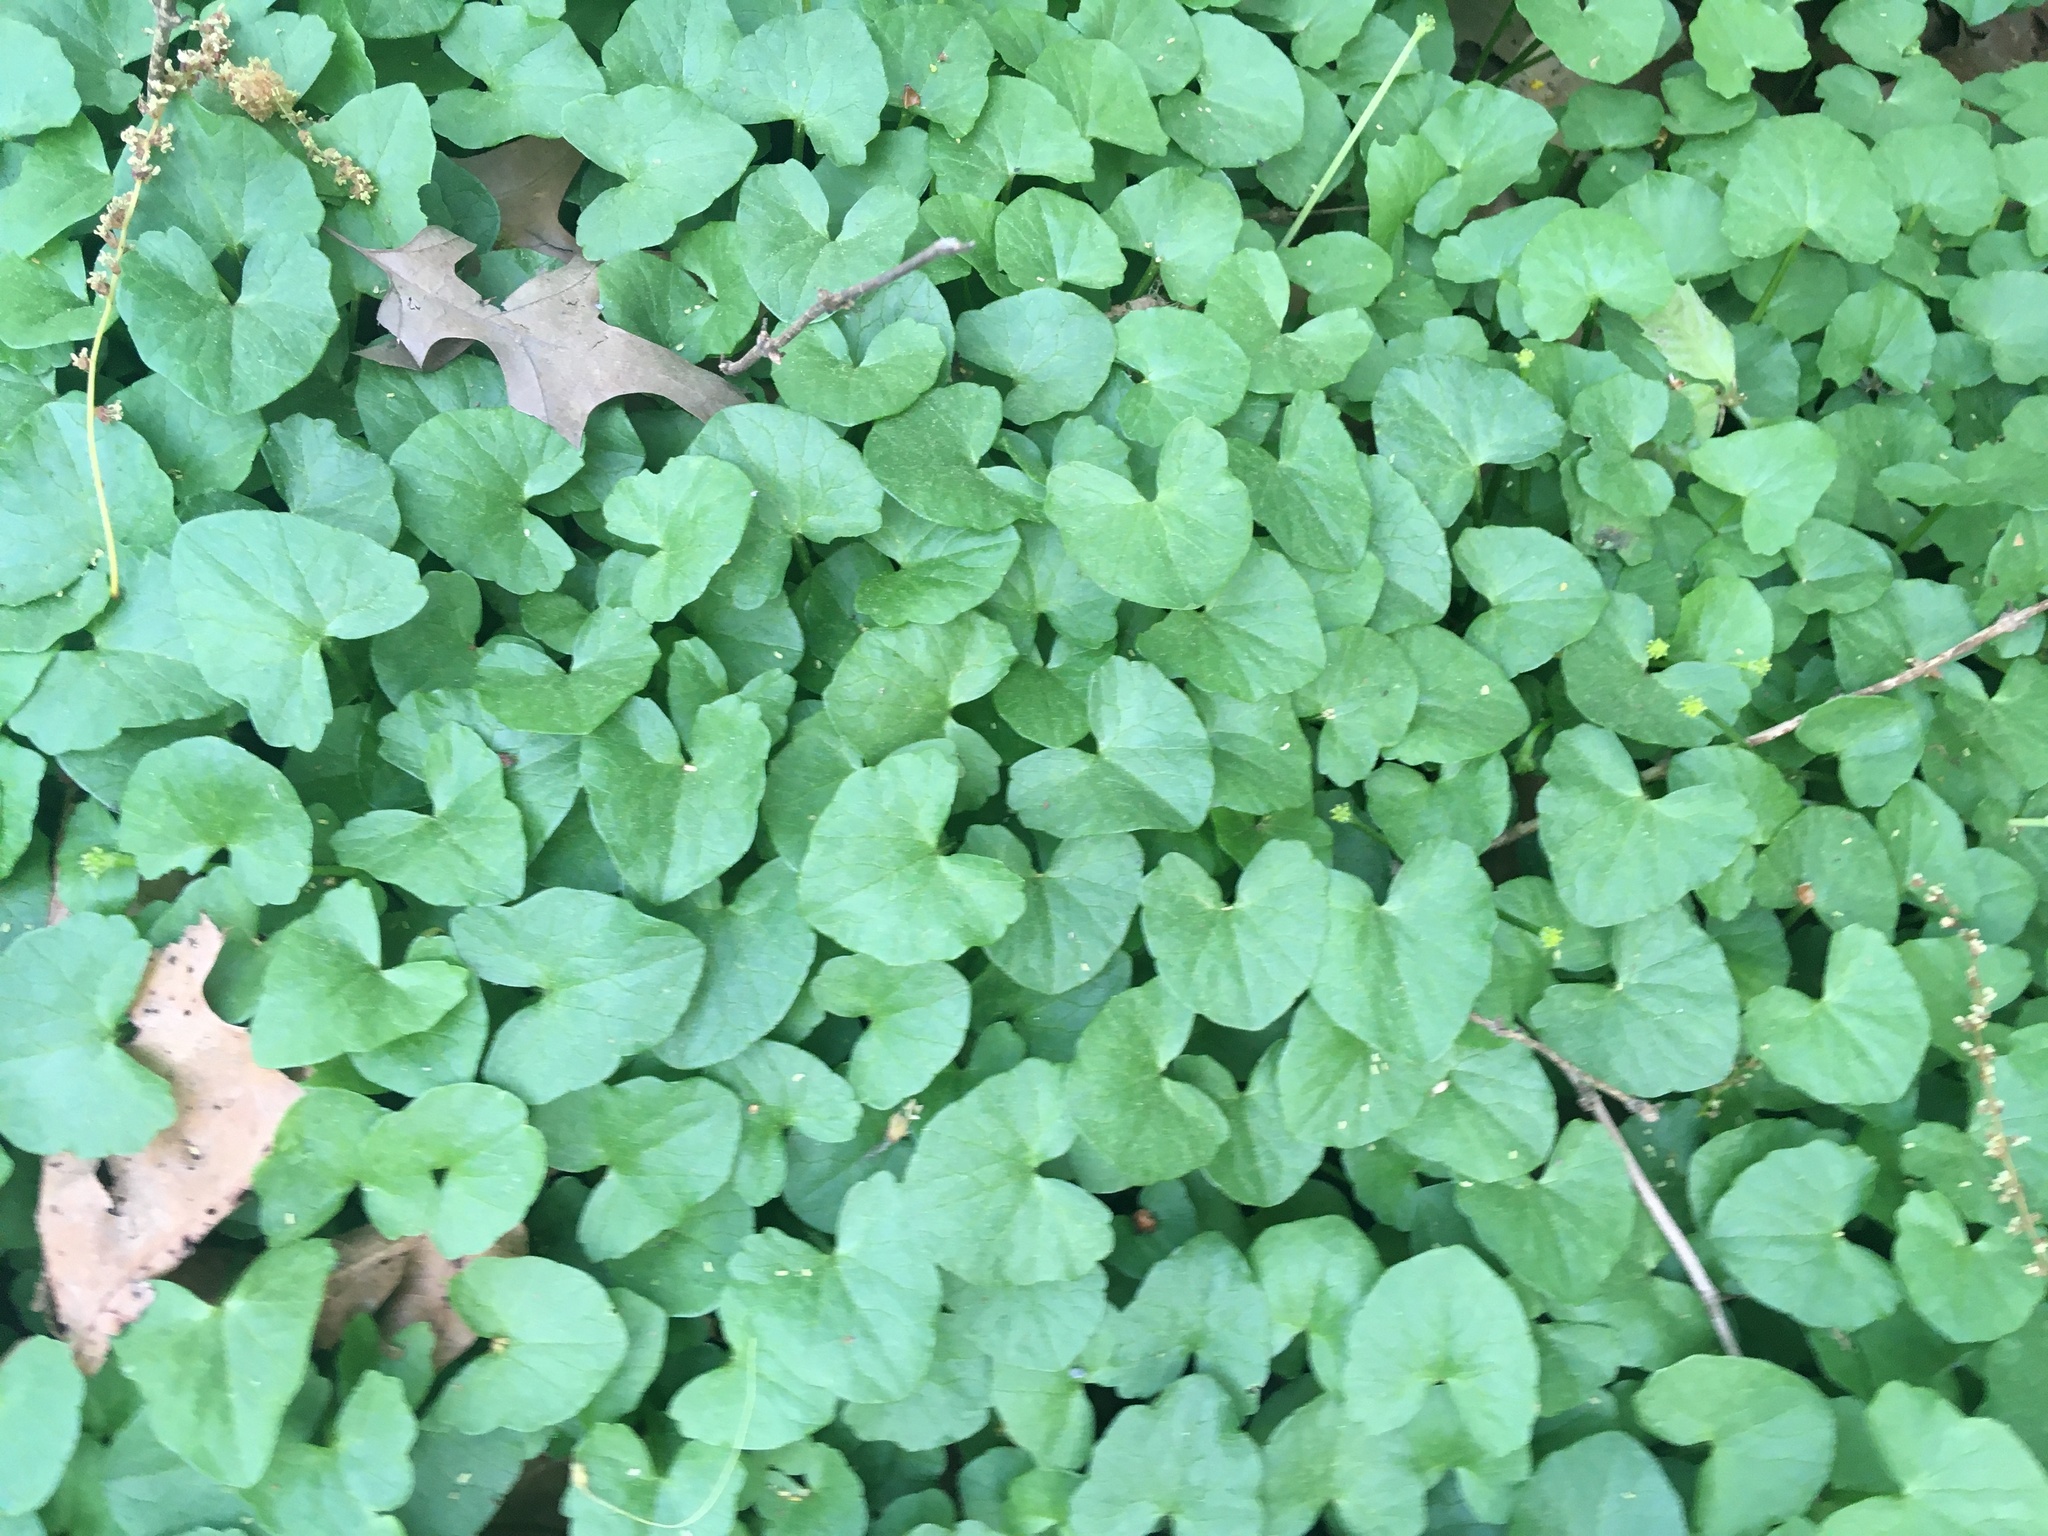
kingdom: Plantae
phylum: Tracheophyta
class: Magnoliopsida
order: Ranunculales
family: Ranunculaceae
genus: Ficaria
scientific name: Ficaria verna
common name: Lesser celandine
